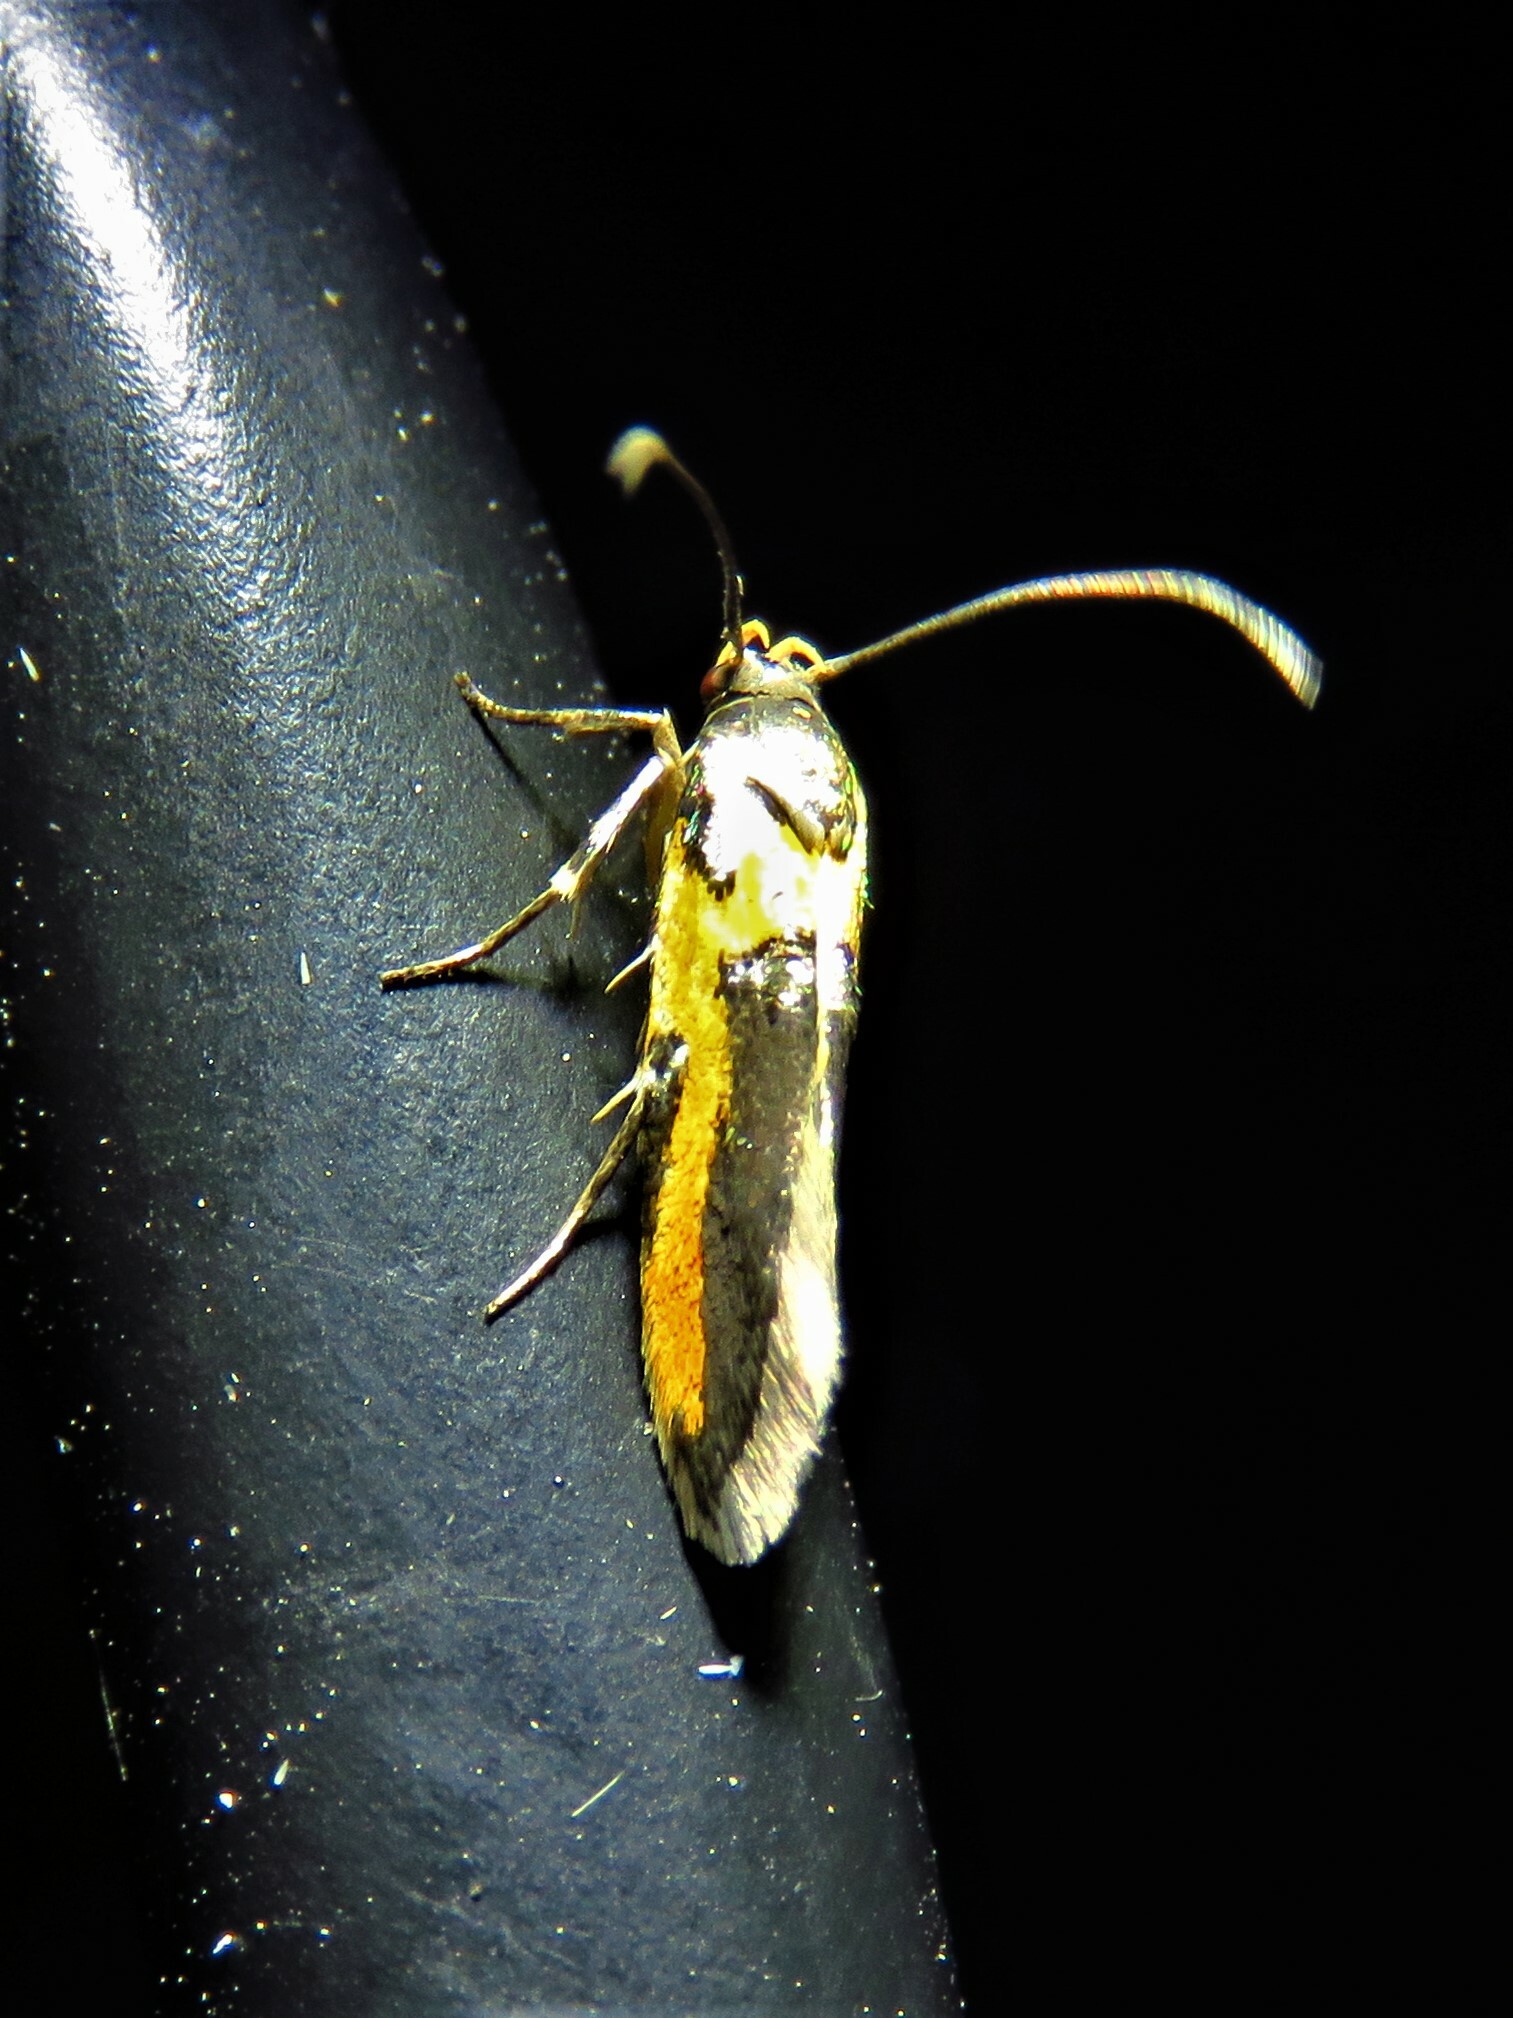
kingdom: Animalia
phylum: Arthropoda
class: Insecta
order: Lepidoptera
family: Cosmopterigidae
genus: Euclemensia
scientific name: Euclemensia bassettella
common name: Kermes scale moth
